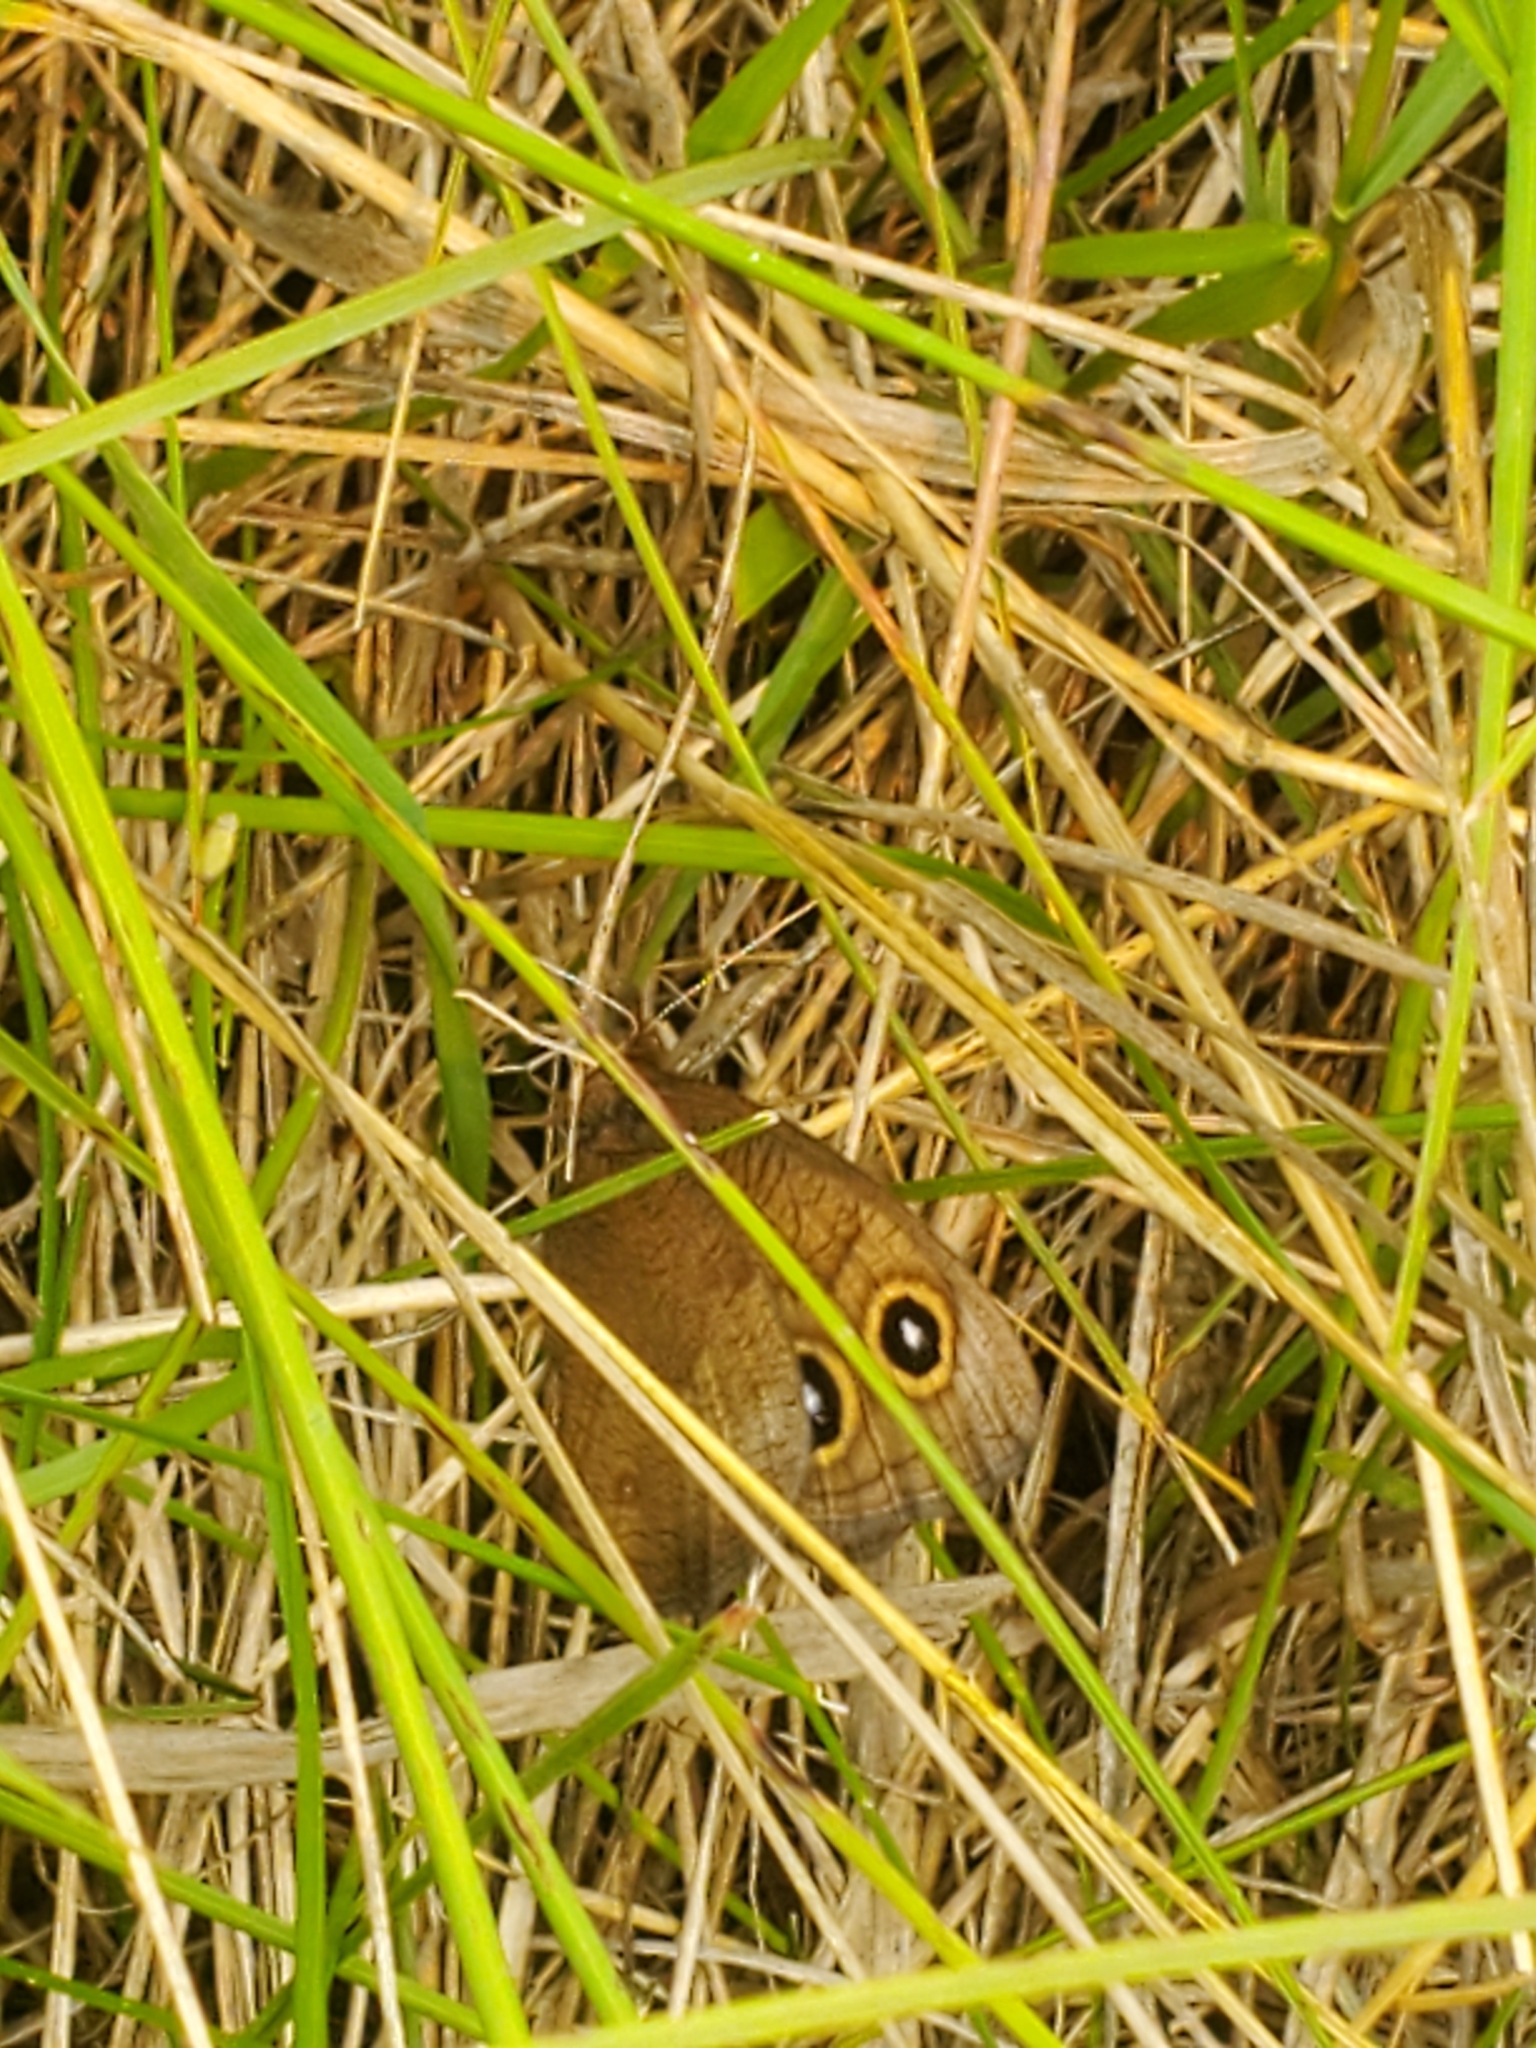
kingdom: Animalia
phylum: Arthropoda
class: Insecta
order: Lepidoptera
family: Nymphalidae
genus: Cercyonis
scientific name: Cercyonis pegala
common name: Common wood-nymph
